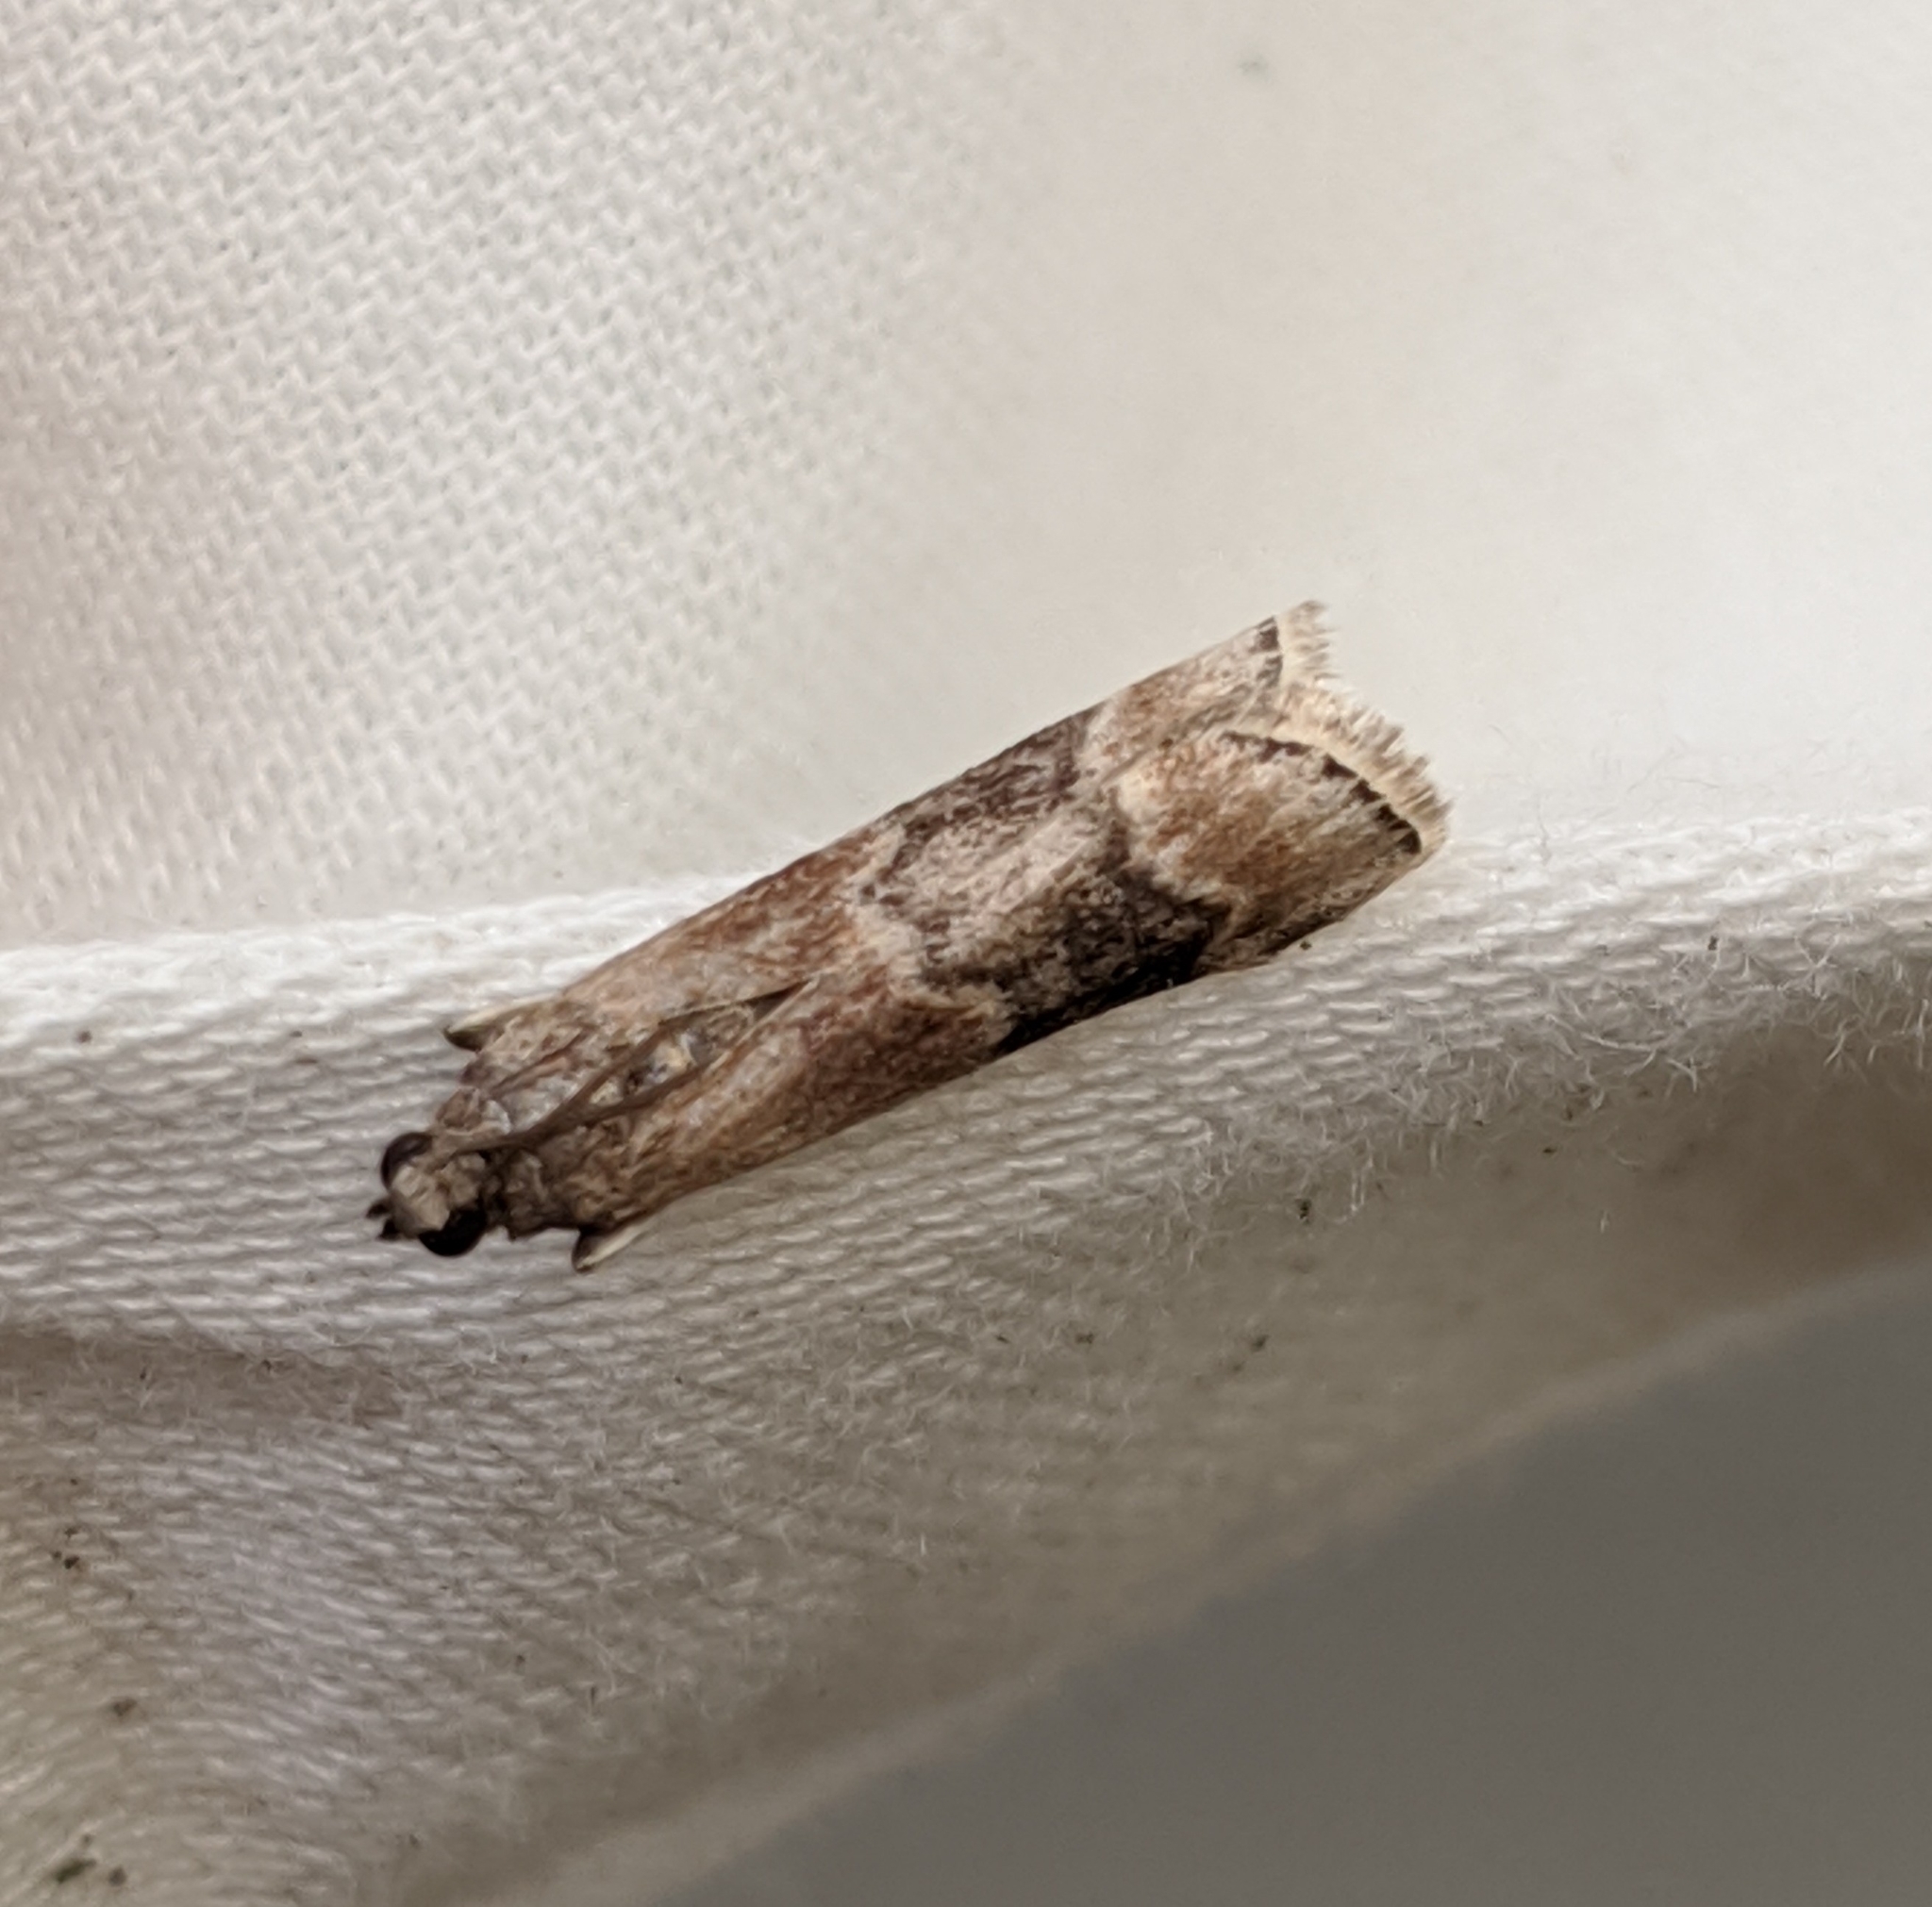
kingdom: Animalia
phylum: Arthropoda
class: Insecta
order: Lepidoptera
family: Pyralidae
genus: Euzophera
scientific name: Euzophera semifuneralis
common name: American plum borer moth
